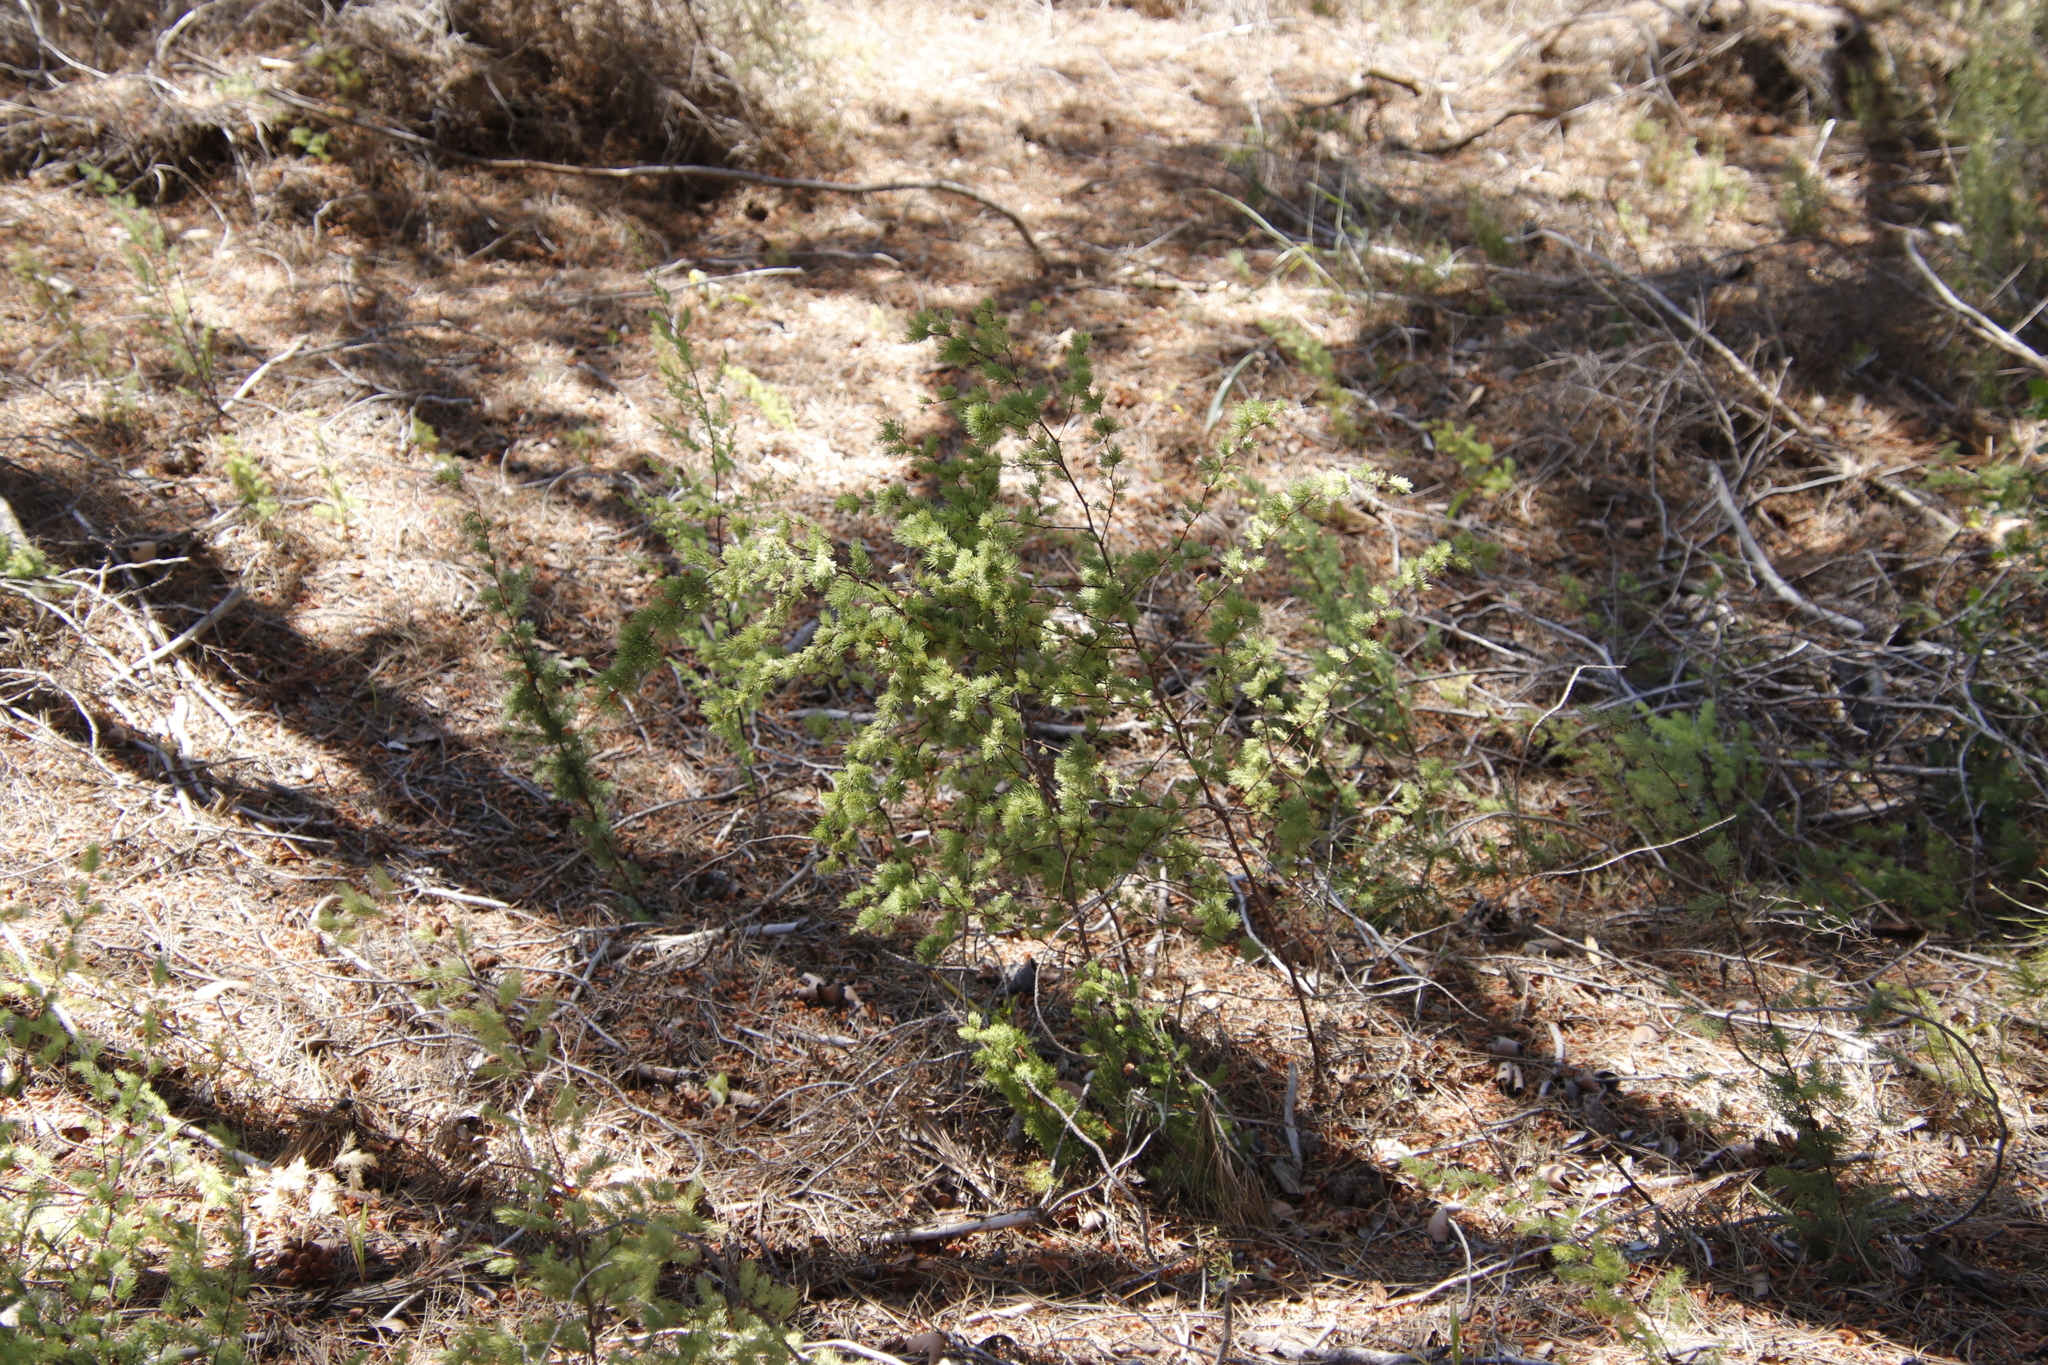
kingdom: Plantae
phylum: Tracheophyta
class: Liliopsida
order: Asparagales
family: Asparagaceae
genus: Asparagus
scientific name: Asparagus rubicundus
